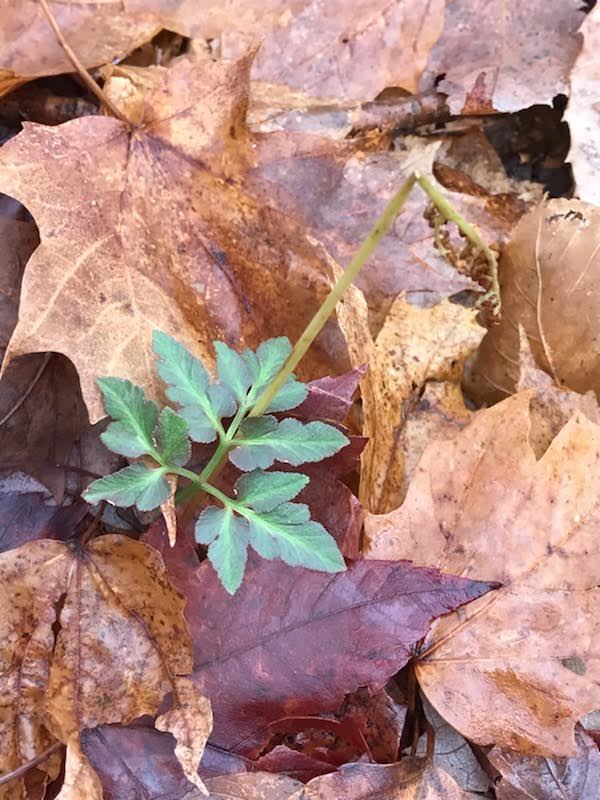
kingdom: Plantae
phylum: Tracheophyta
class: Polypodiopsida
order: Ophioglossales
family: Ophioglossaceae
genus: Sceptridium
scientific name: Sceptridium dissectum
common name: Cut-leaved grapefern
